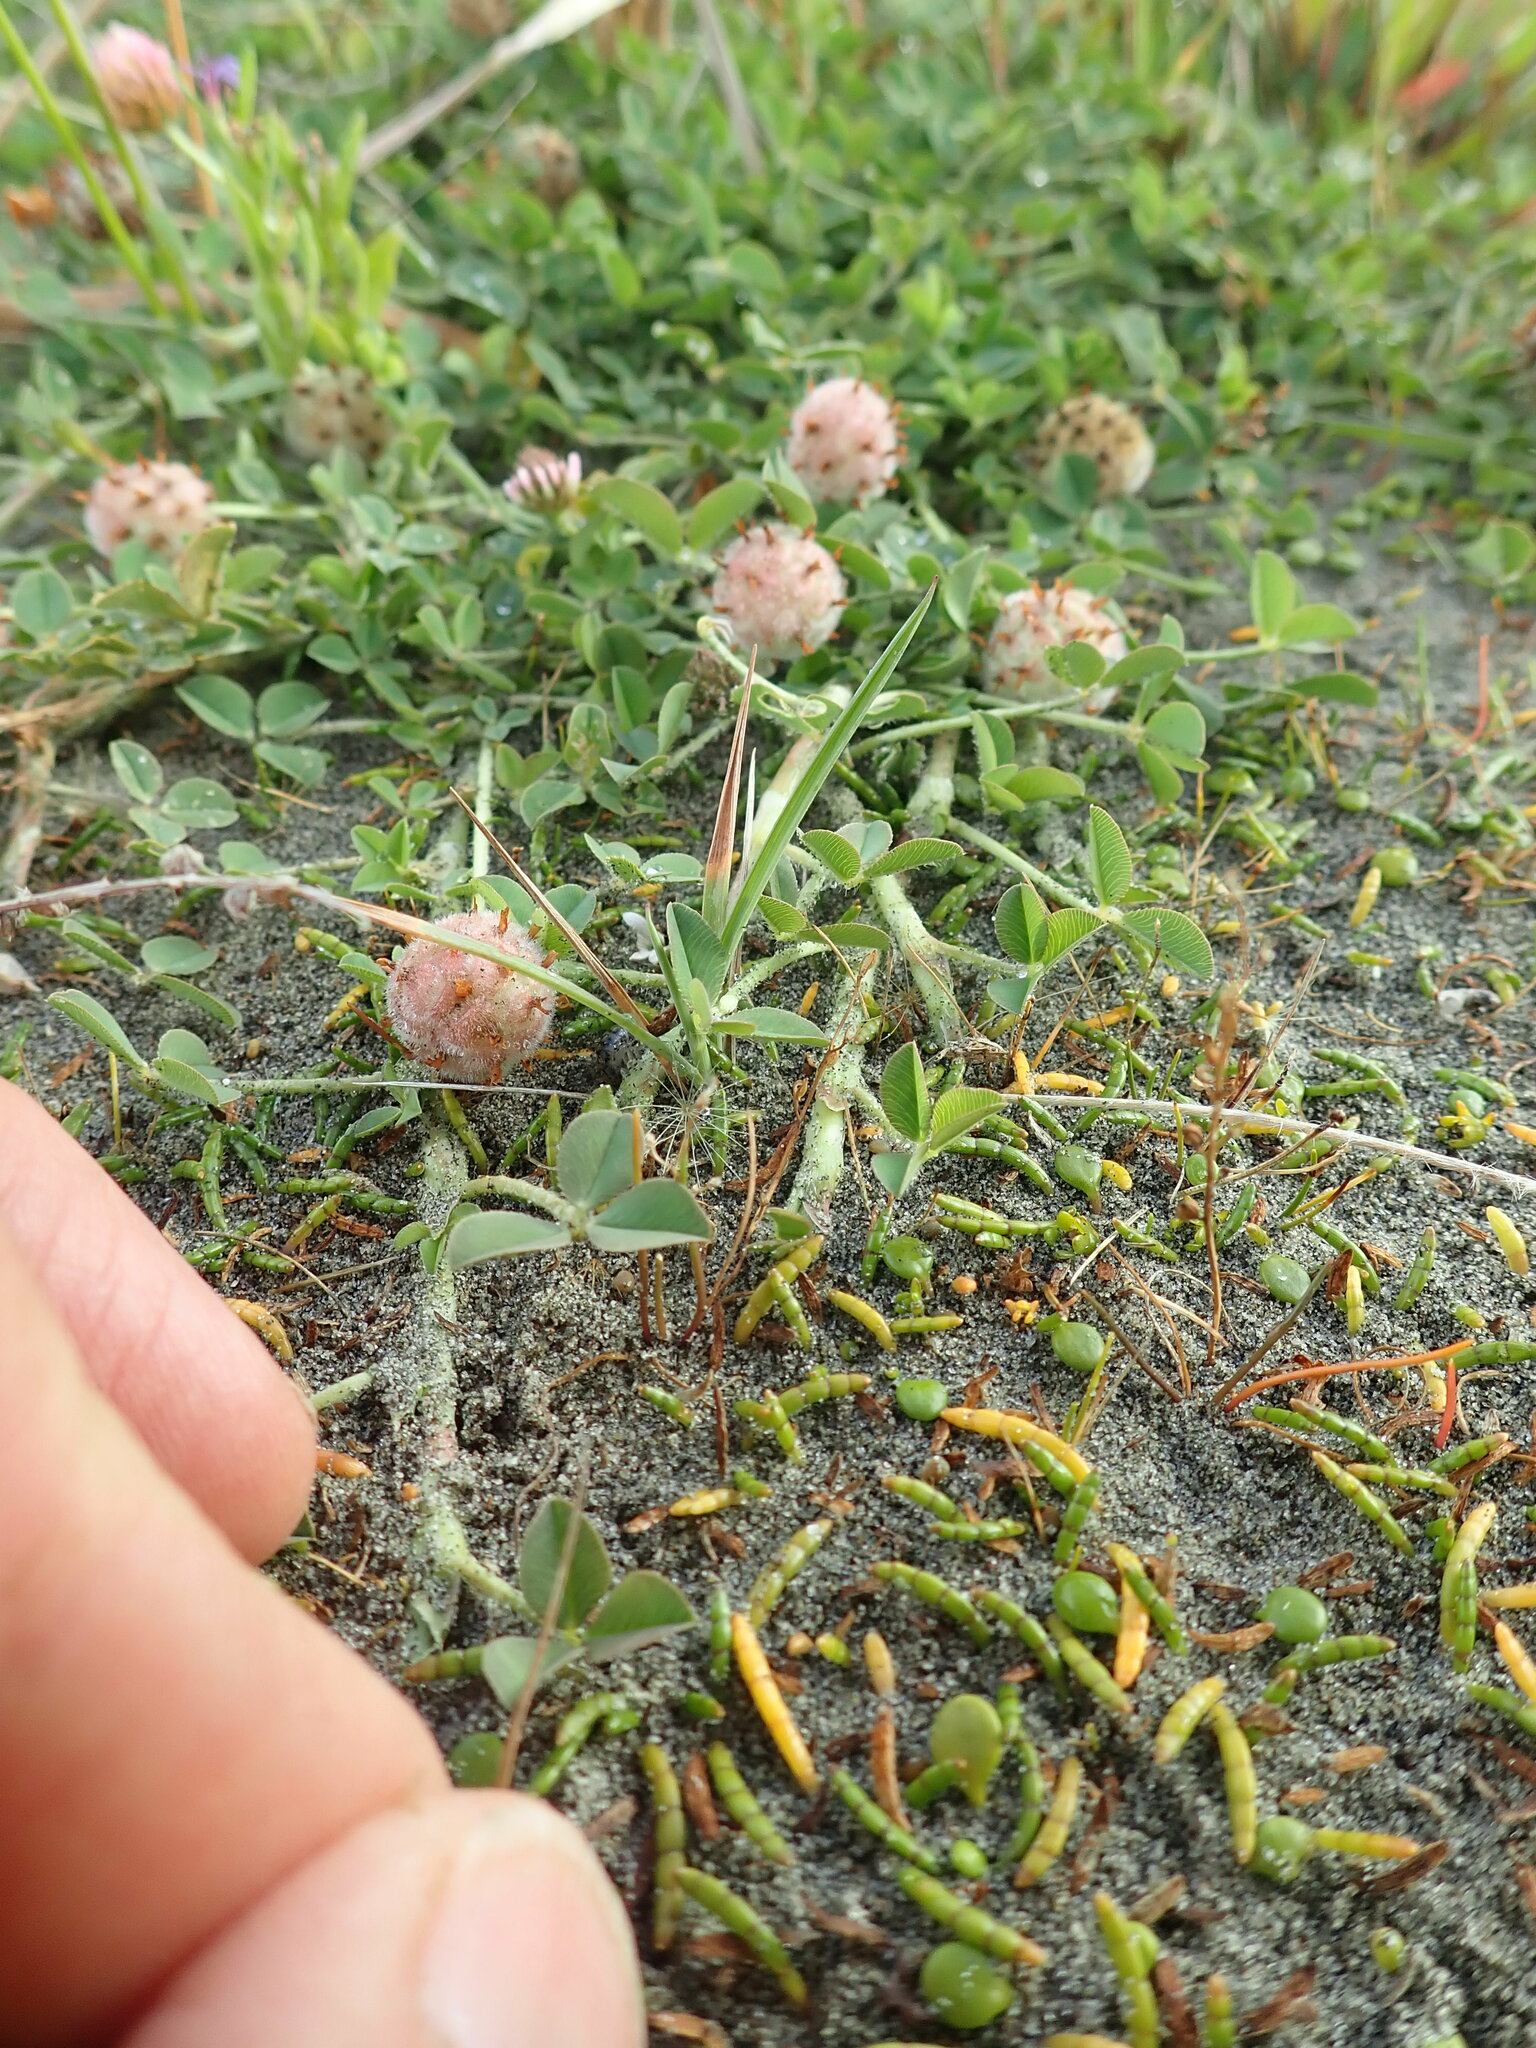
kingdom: Plantae
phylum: Tracheophyta
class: Magnoliopsida
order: Apiales
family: Apiaceae
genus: Lilaeopsis
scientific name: Lilaeopsis novae-zelandiae
